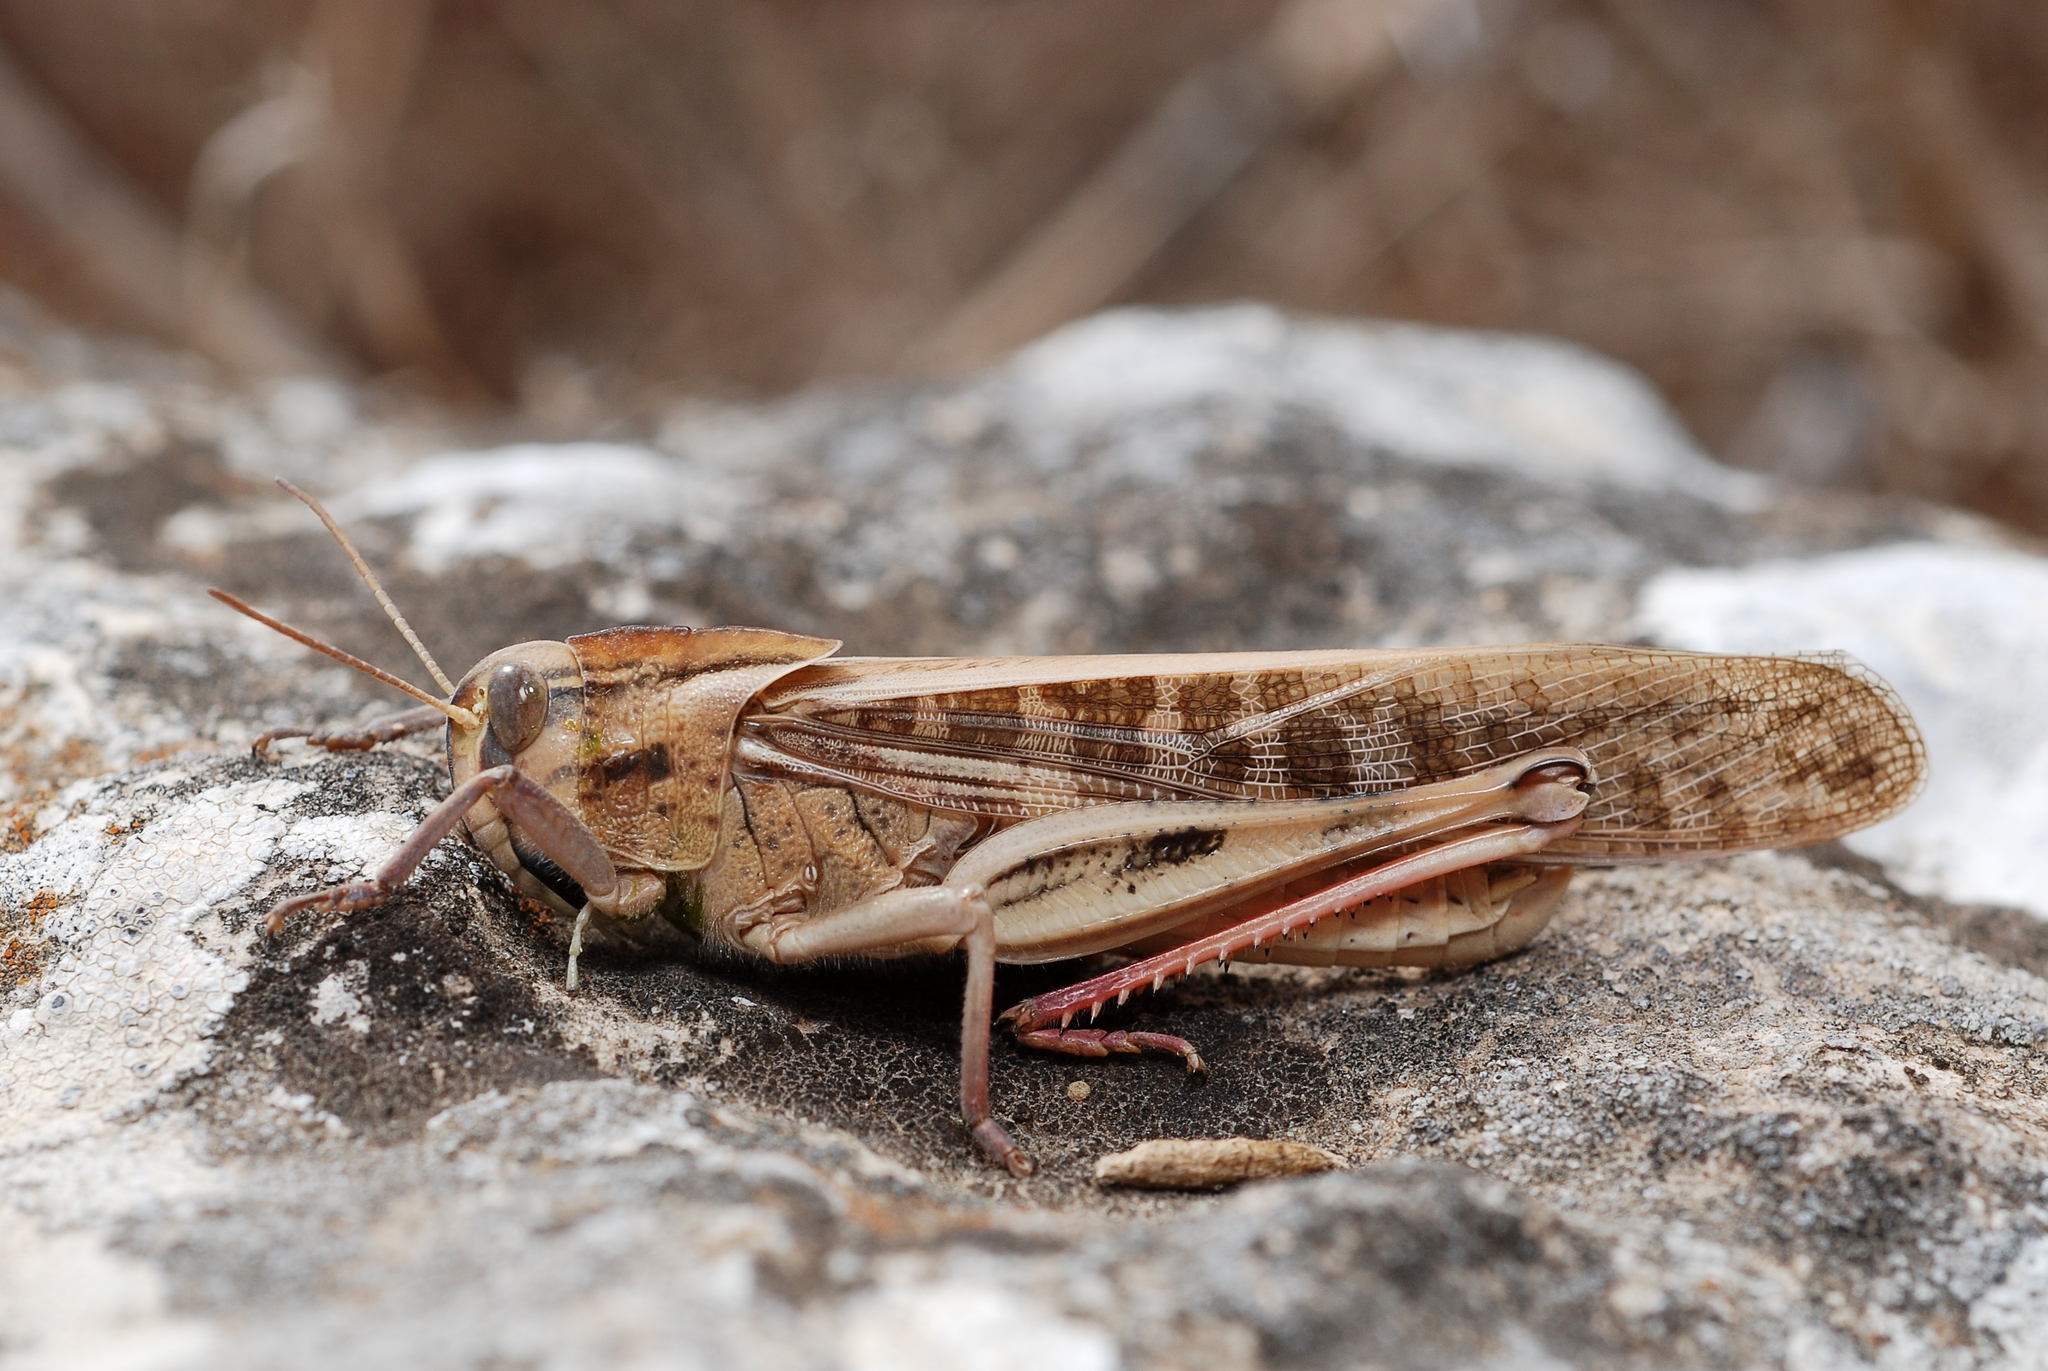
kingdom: Animalia
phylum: Arthropoda
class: Insecta
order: Orthoptera
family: Acrididae
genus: Locusta
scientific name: Locusta migratoria
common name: Migratory locust
